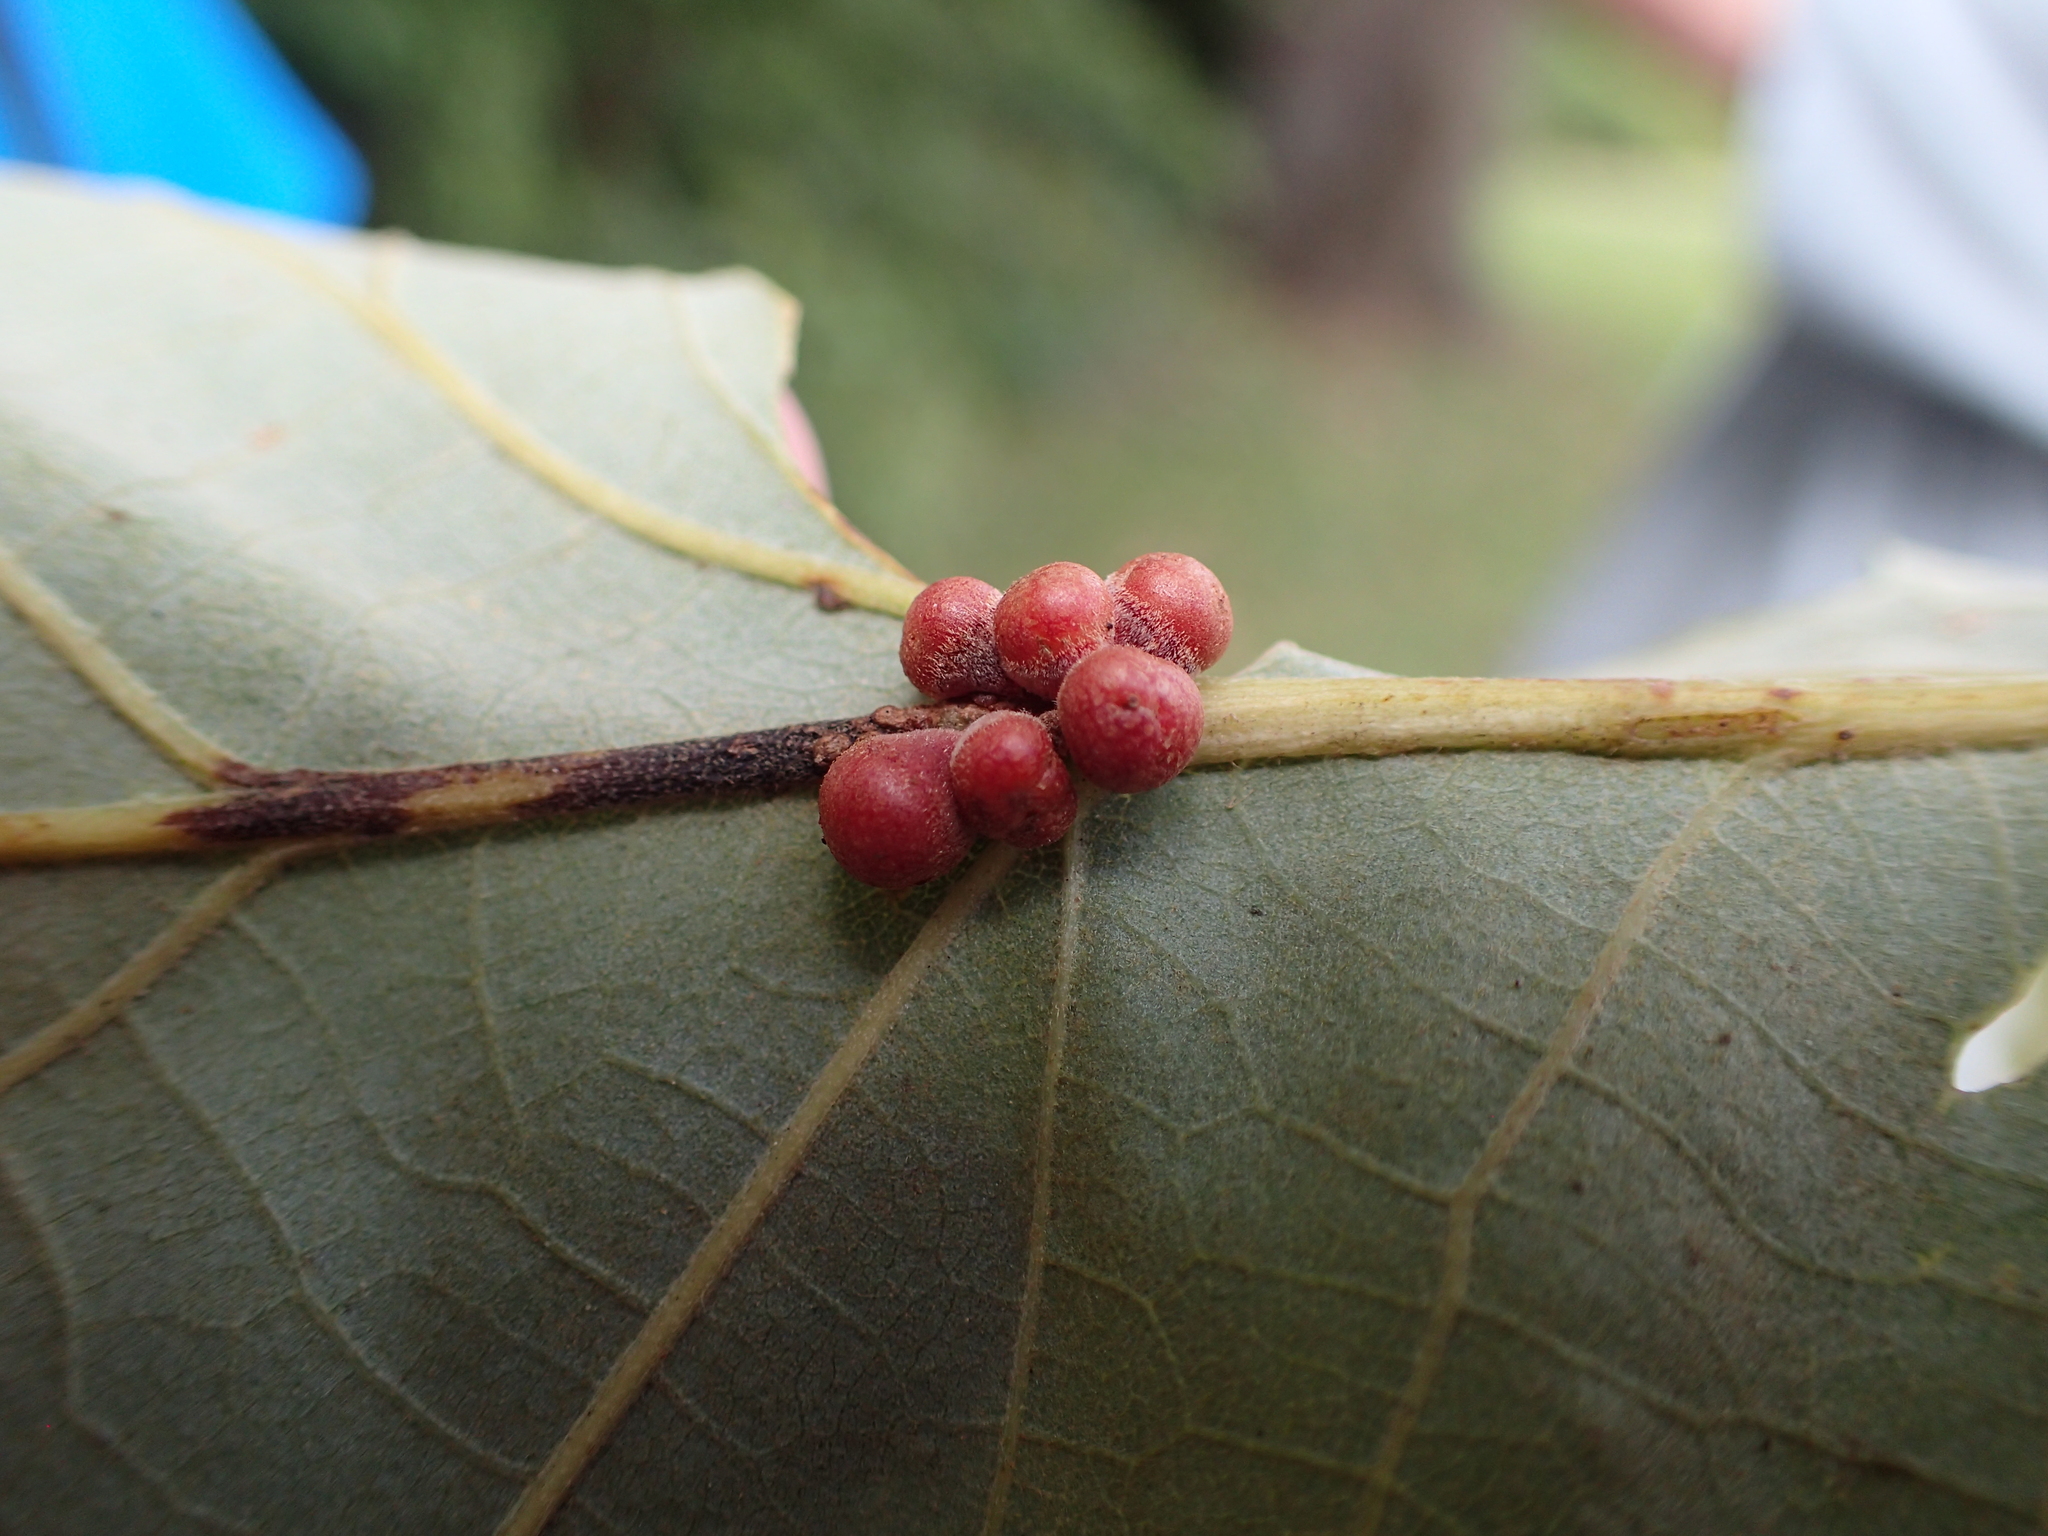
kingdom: Animalia
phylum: Arthropoda
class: Insecta
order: Hymenoptera
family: Cynipidae
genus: Andricus
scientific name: Andricus
